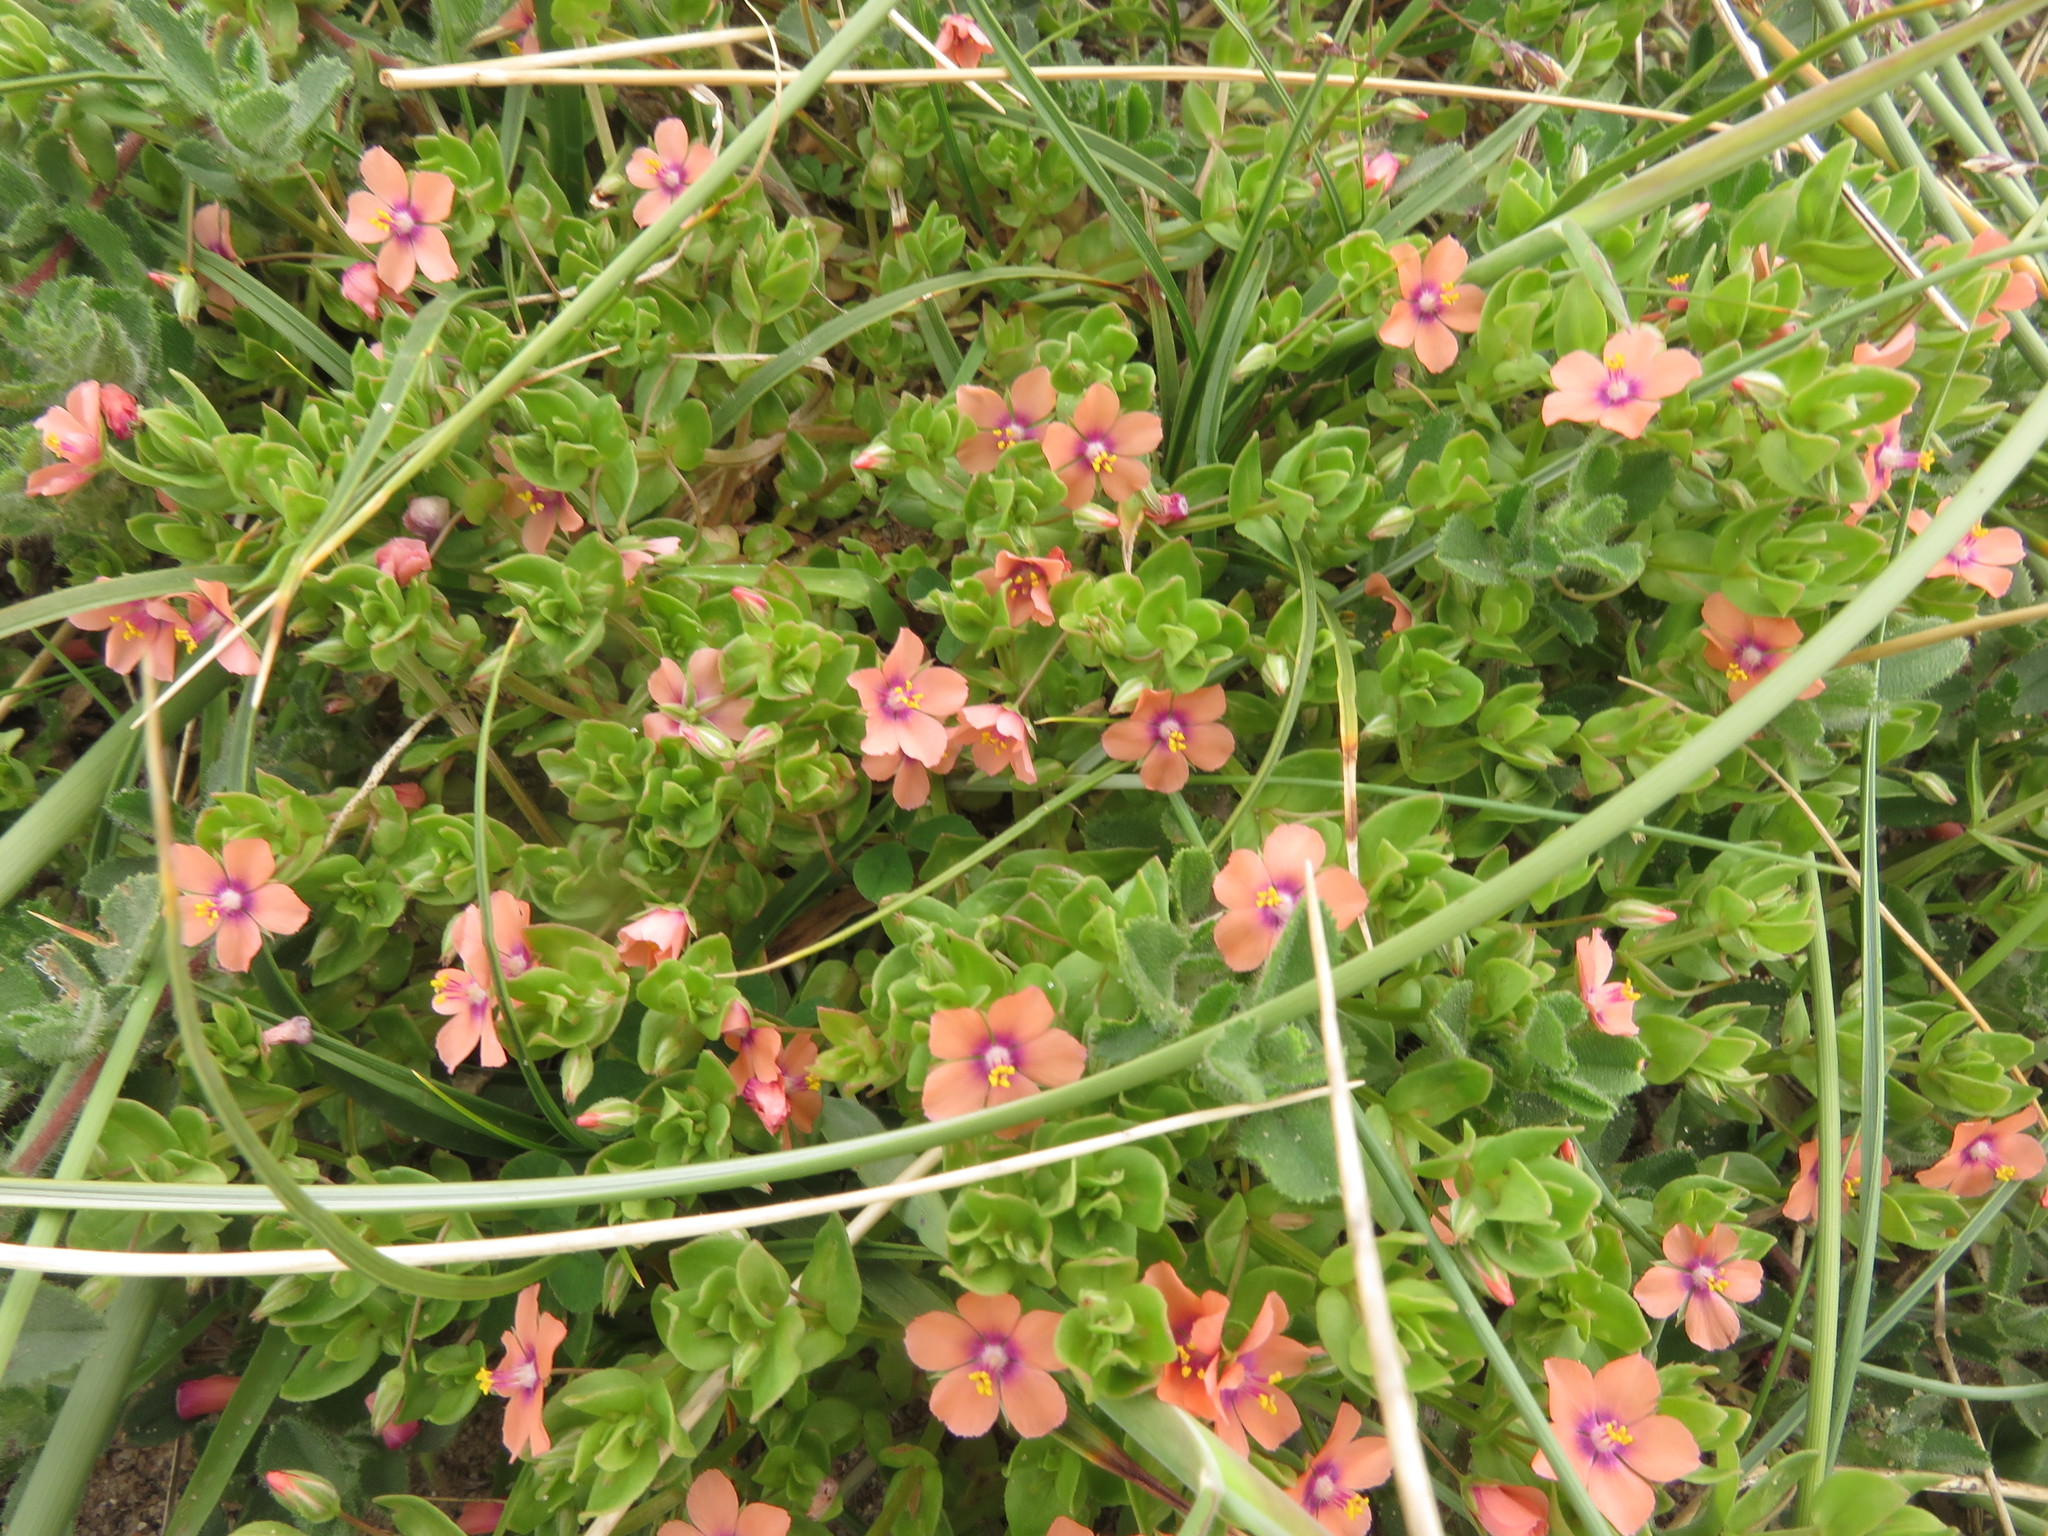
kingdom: Plantae
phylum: Tracheophyta
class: Magnoliopsida
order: Ericales
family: Primulaceae
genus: Lysimachia
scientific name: Lysimachia arvensis
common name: Scarlet pimpernel
